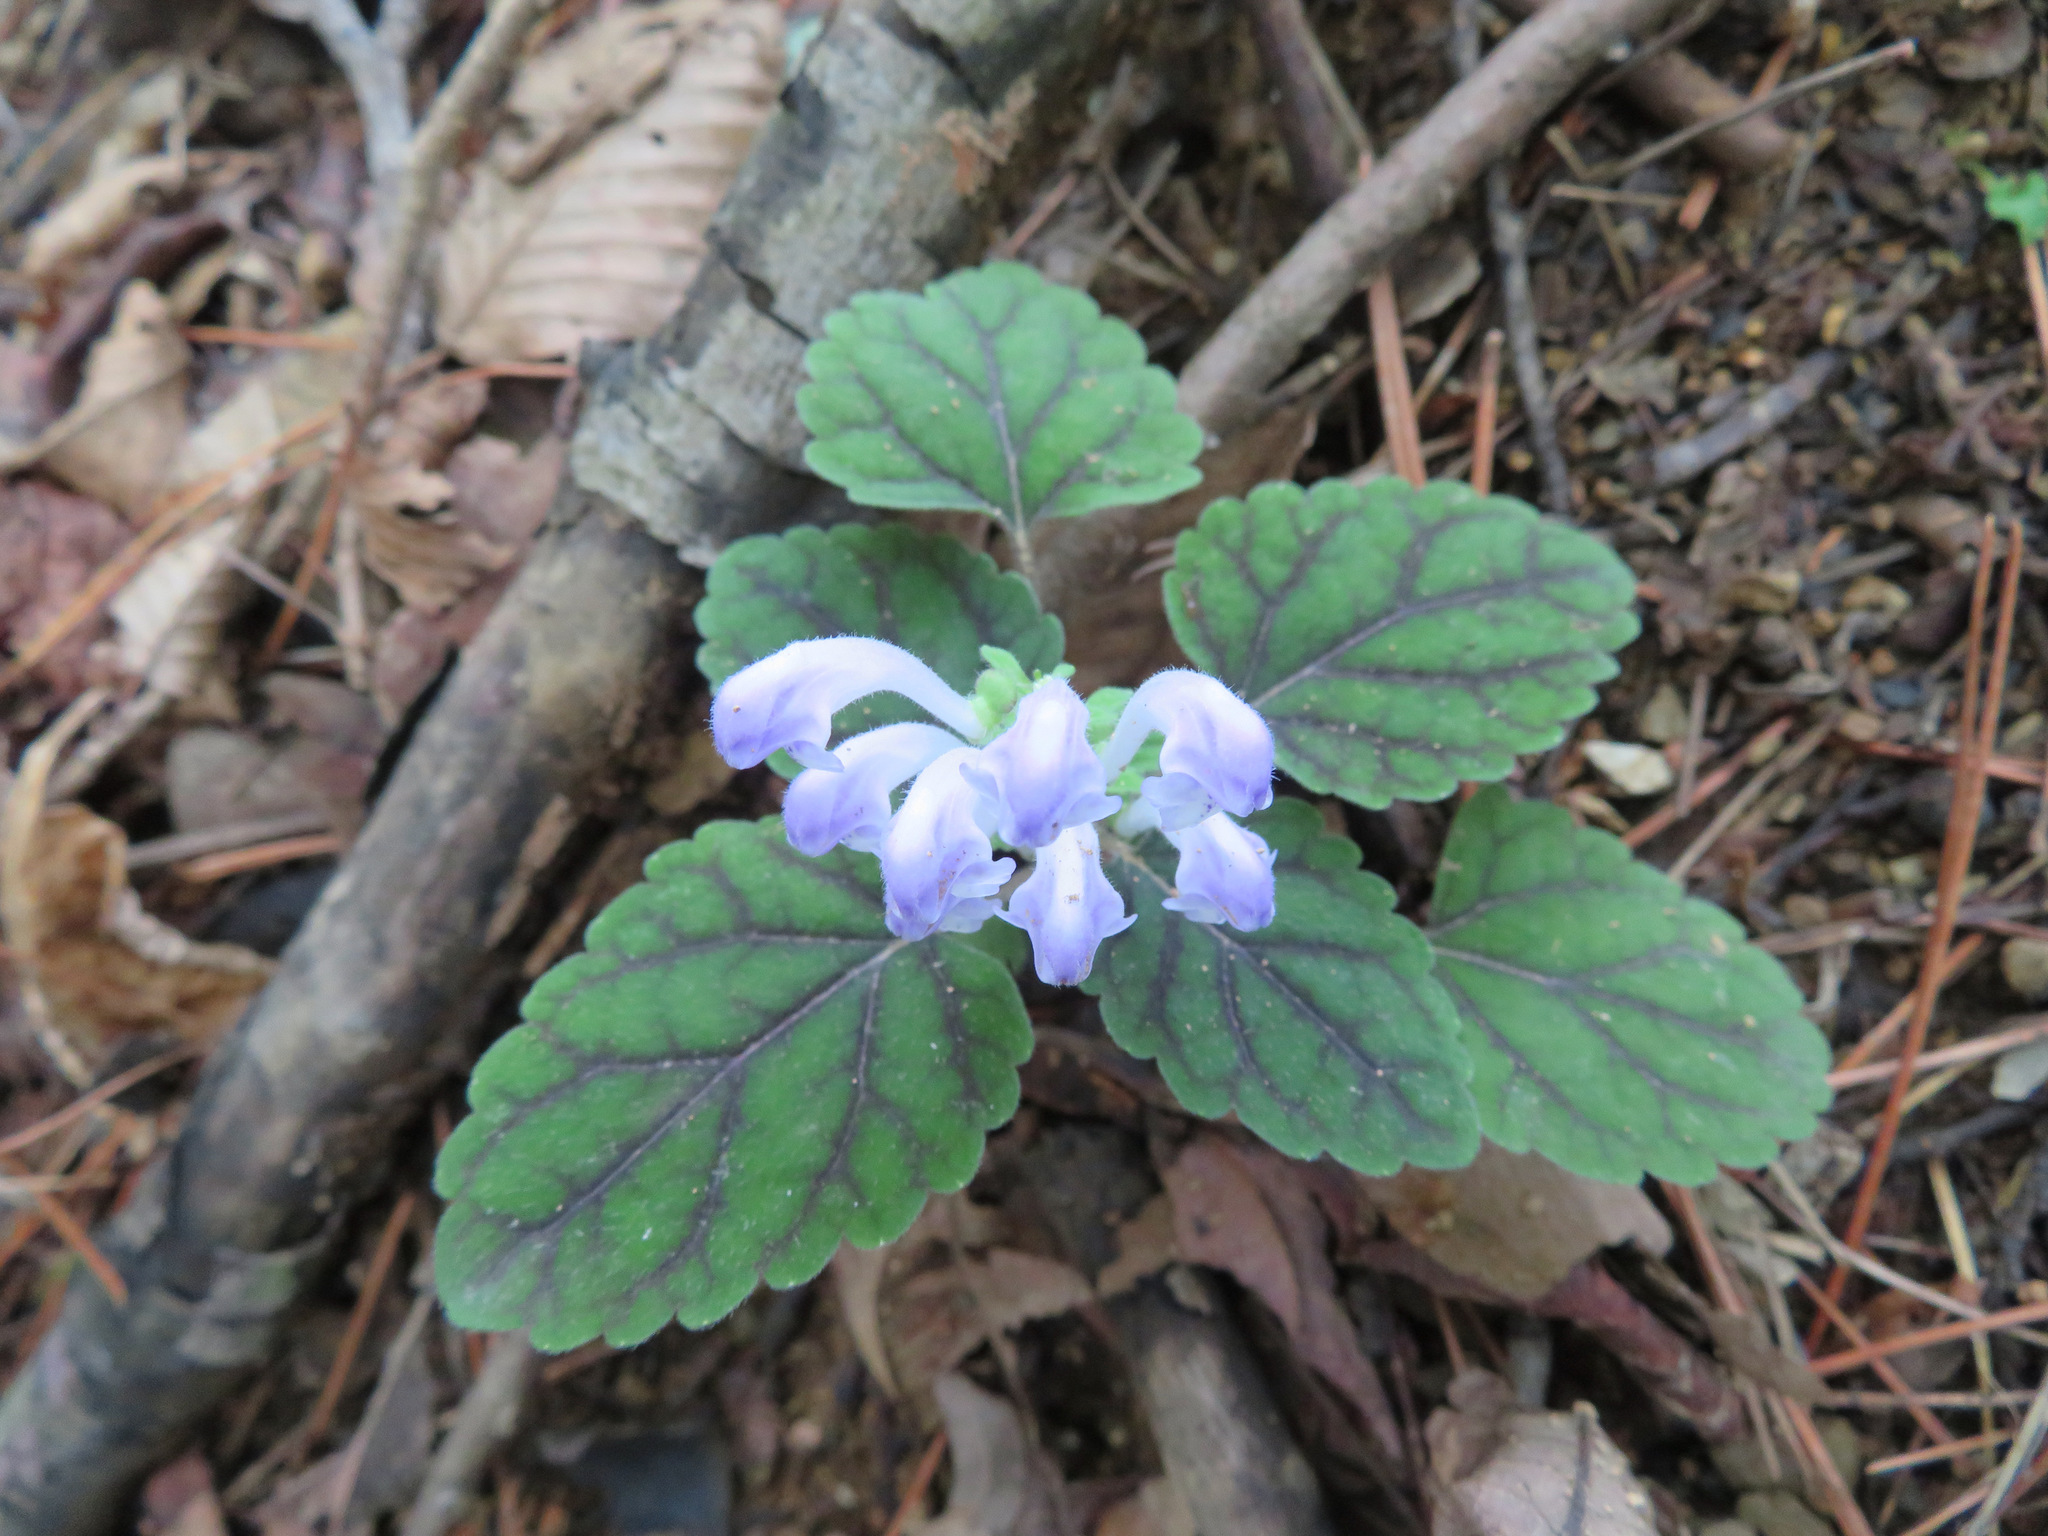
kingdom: Plantae
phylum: Tracheophyta
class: Magnoliopsida
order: Lamiales
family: Lamiaceae
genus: Scutellaria
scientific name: Scutellaria laeteviolacea
